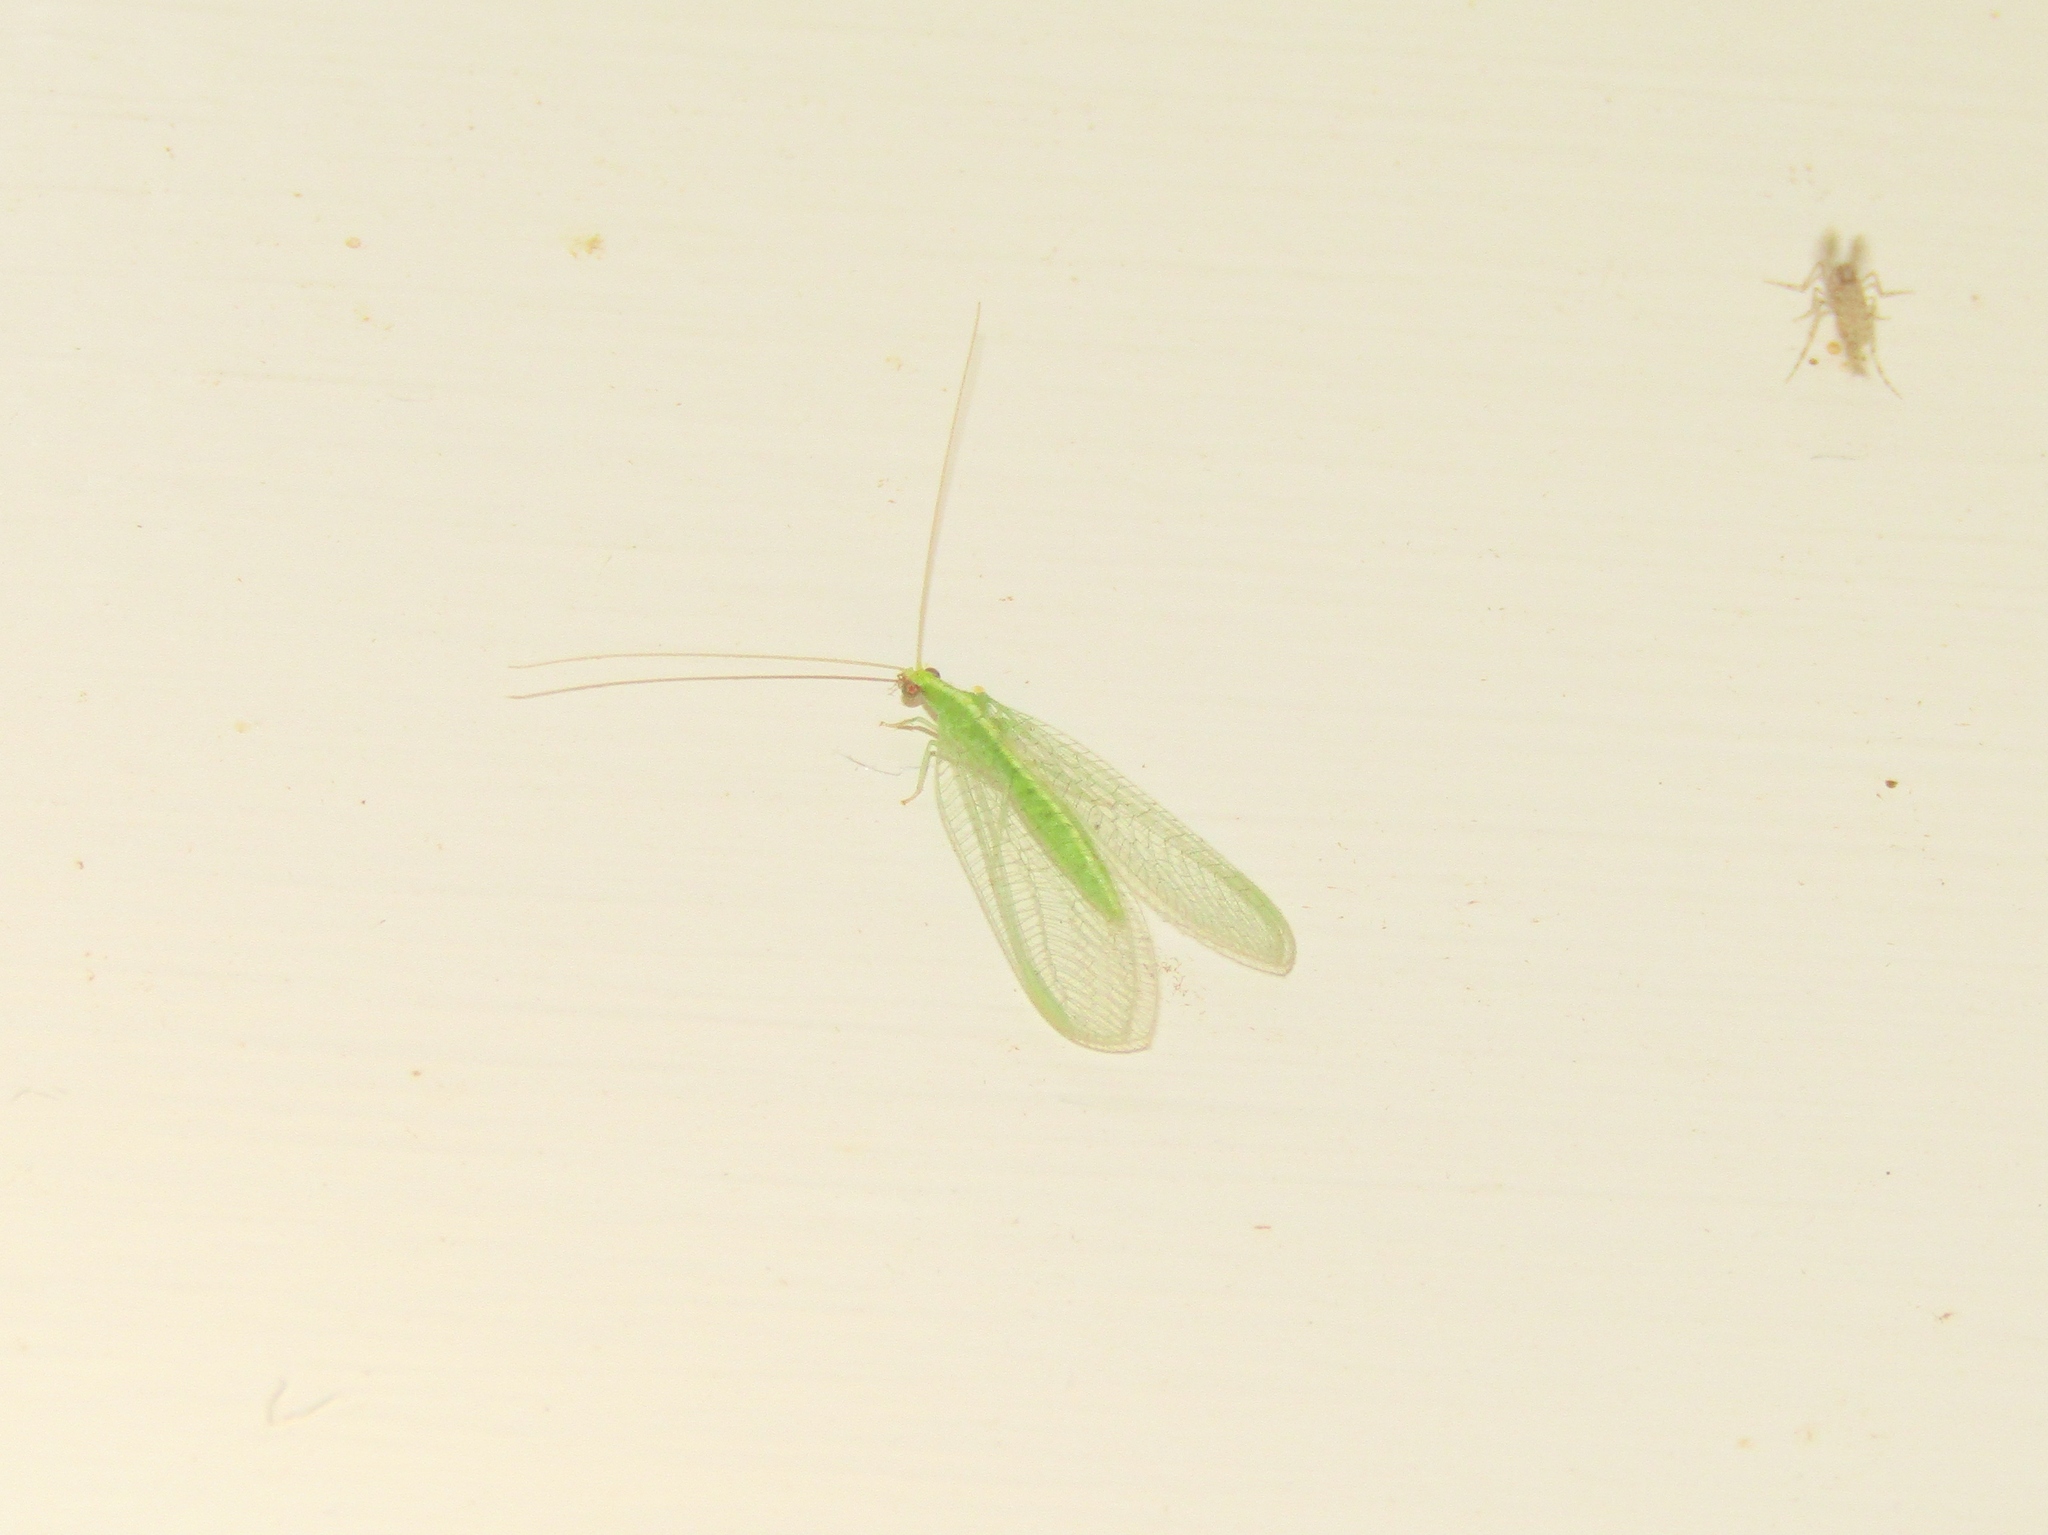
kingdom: Animalia
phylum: Arthropoda
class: Insecta
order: Neuroptera
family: Chrysopidae
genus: Chrysoperla
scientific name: Chrysoperla
